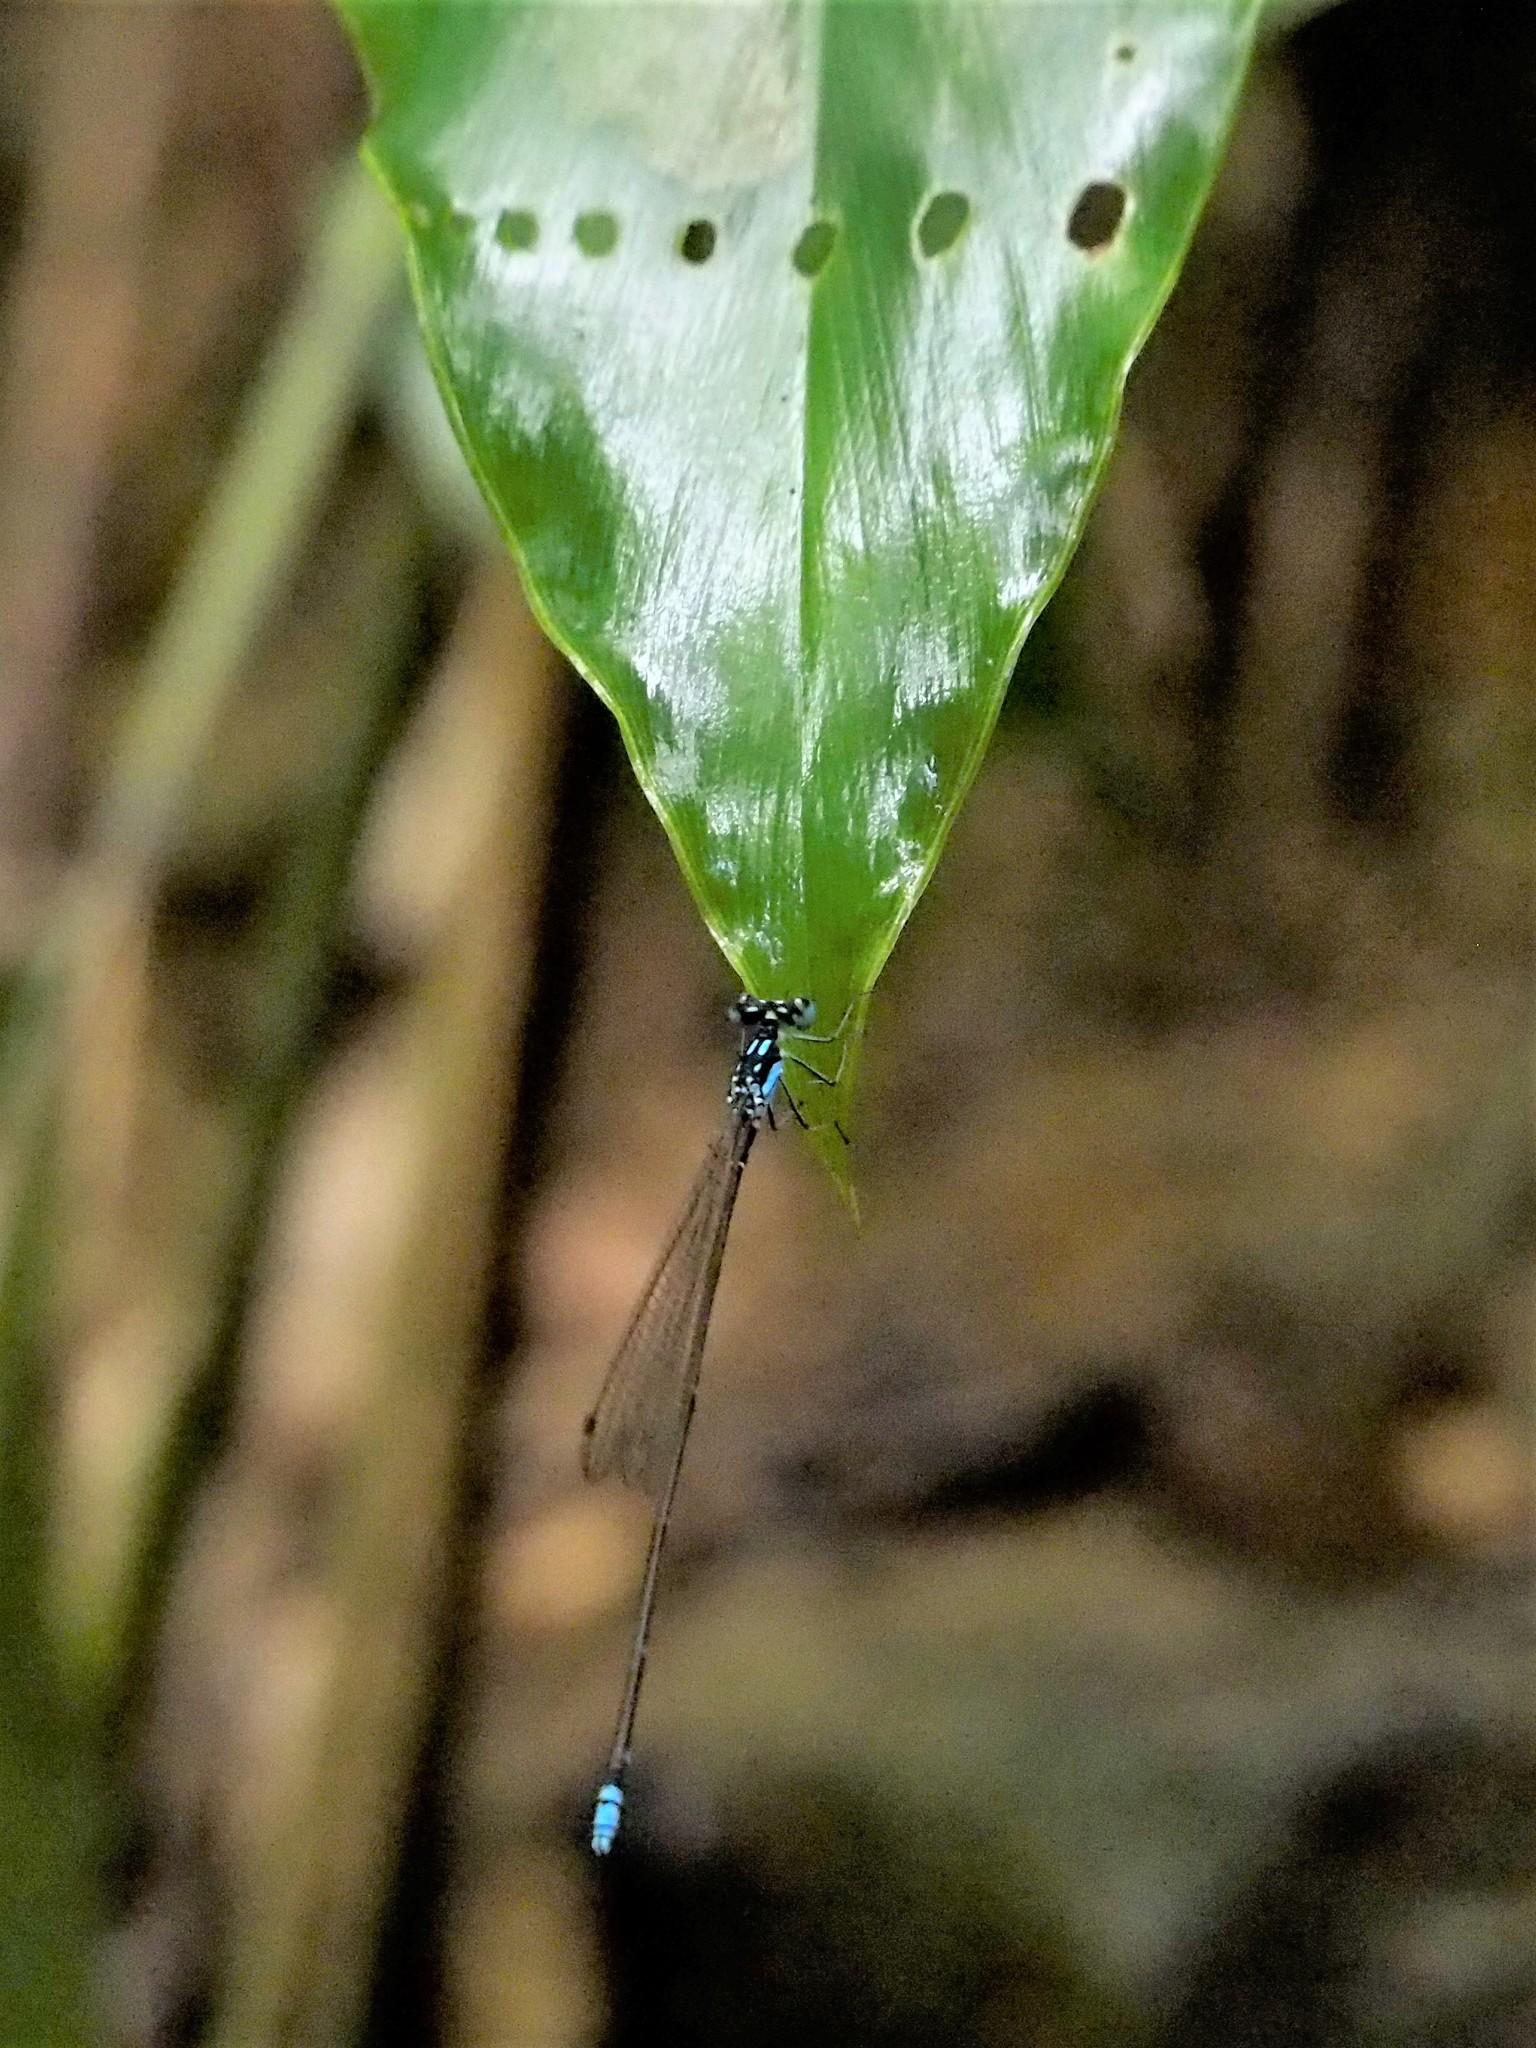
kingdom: Animalia
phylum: Arthropoda
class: Insecta
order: Odonata
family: Platycnemididae
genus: Coeliccia
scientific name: Coeliccia cyanomelas
